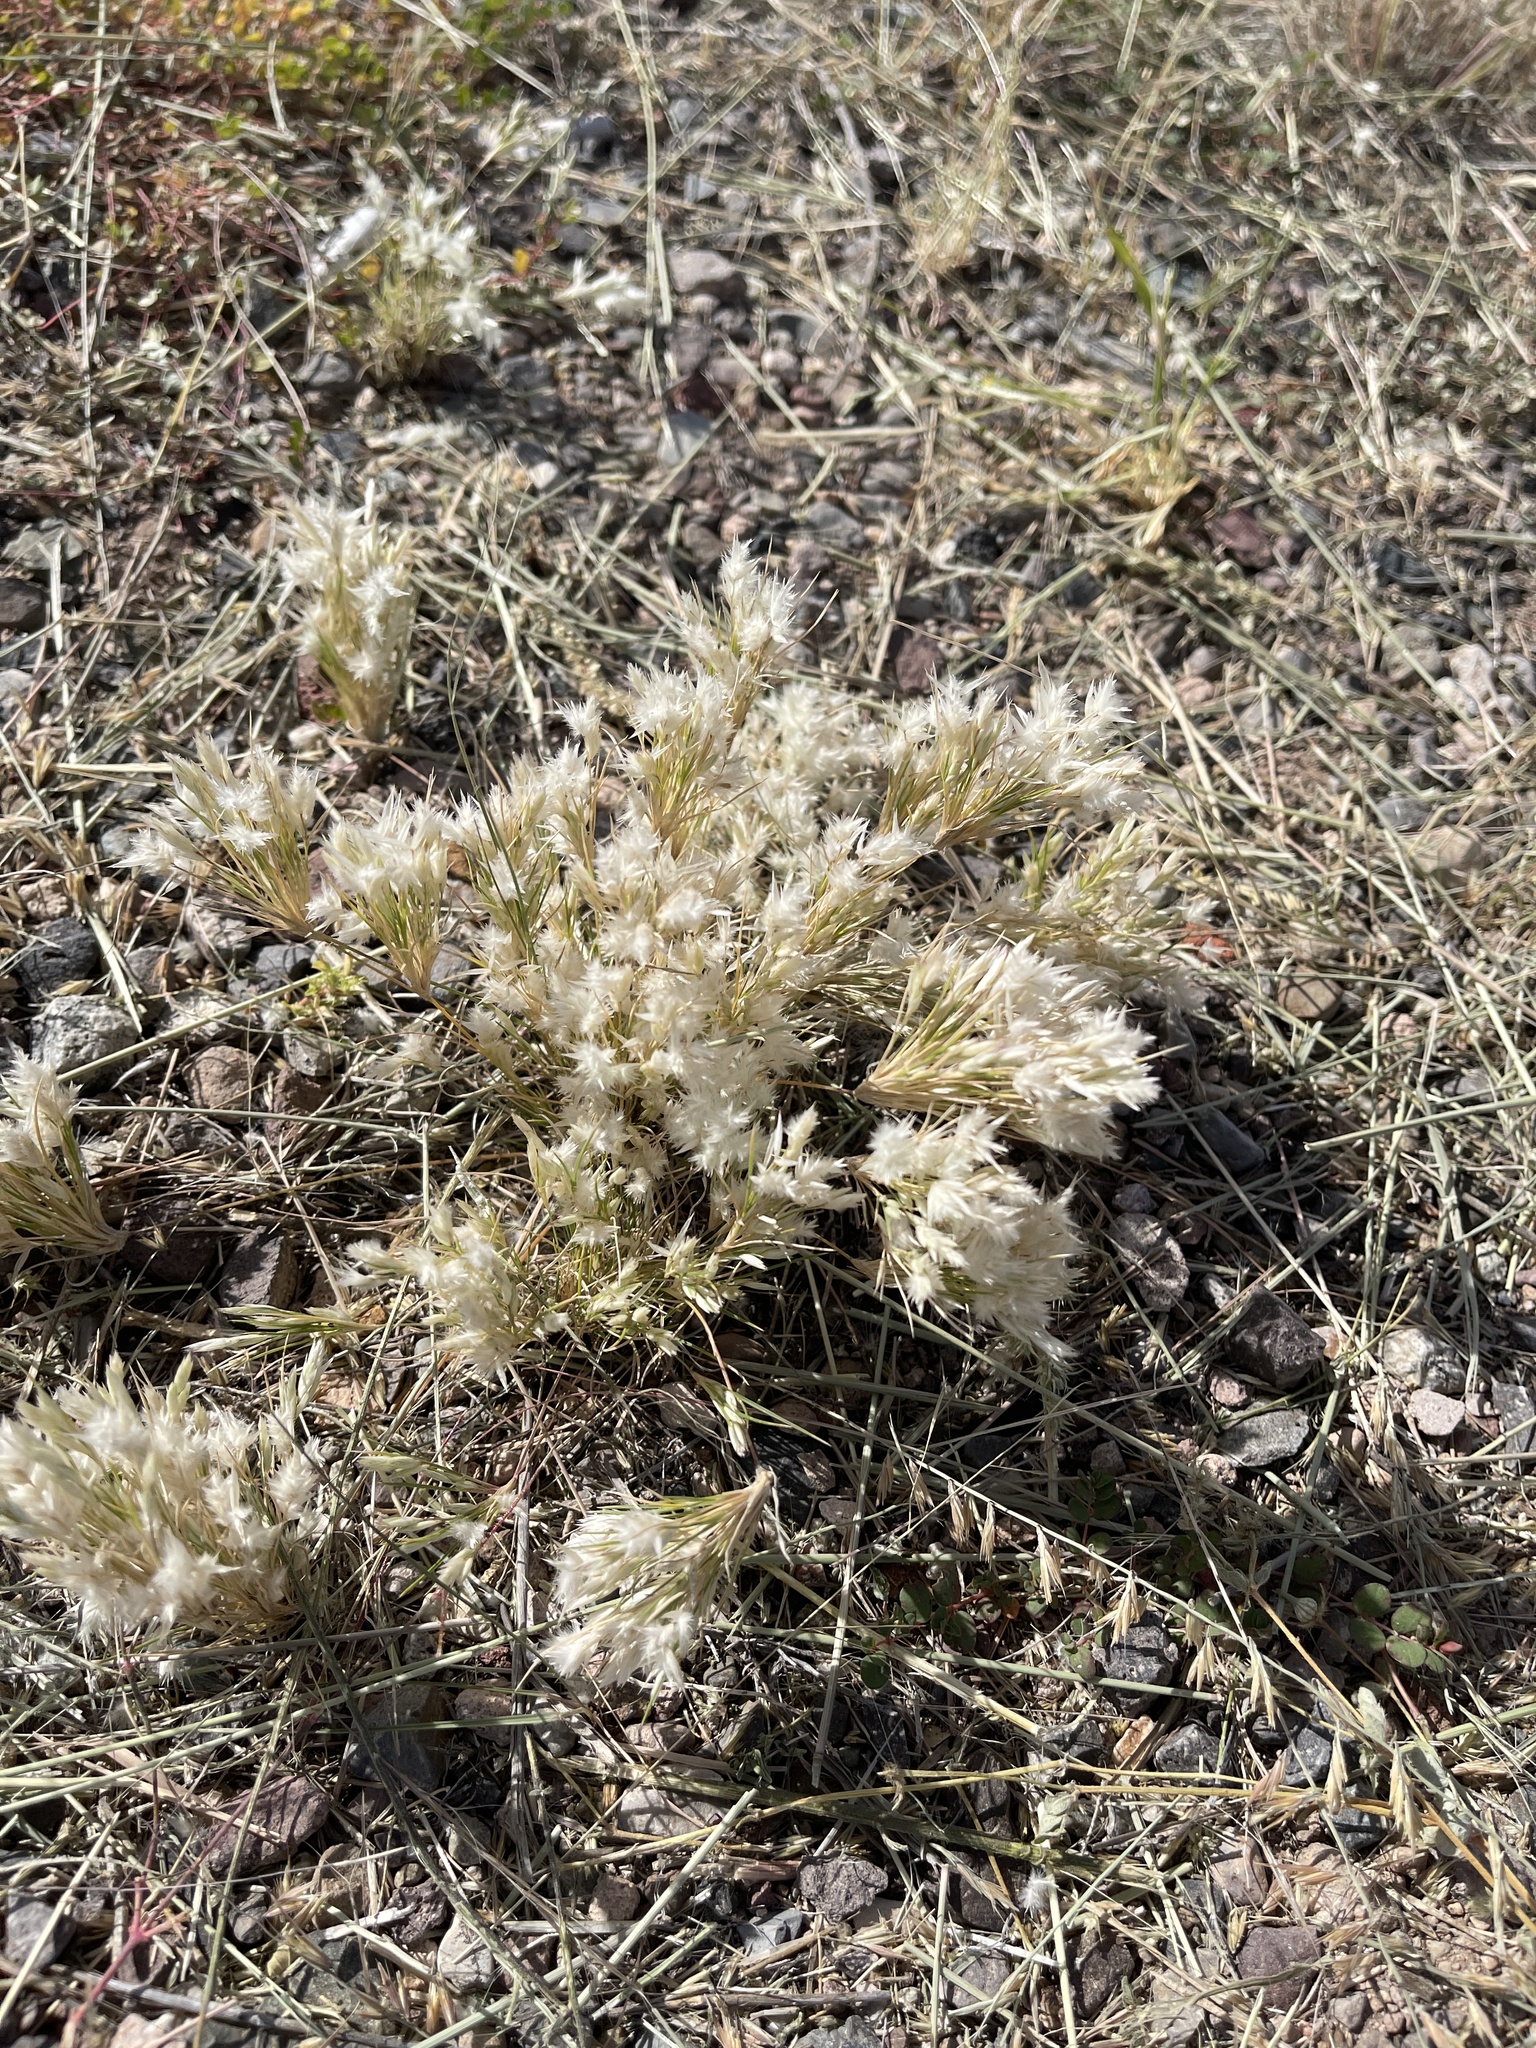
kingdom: Plantae
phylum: Tracheophyta
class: Liliopsida
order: Poales
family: Poaceae
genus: Dasyochloa
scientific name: Dasyochloa pulchella
